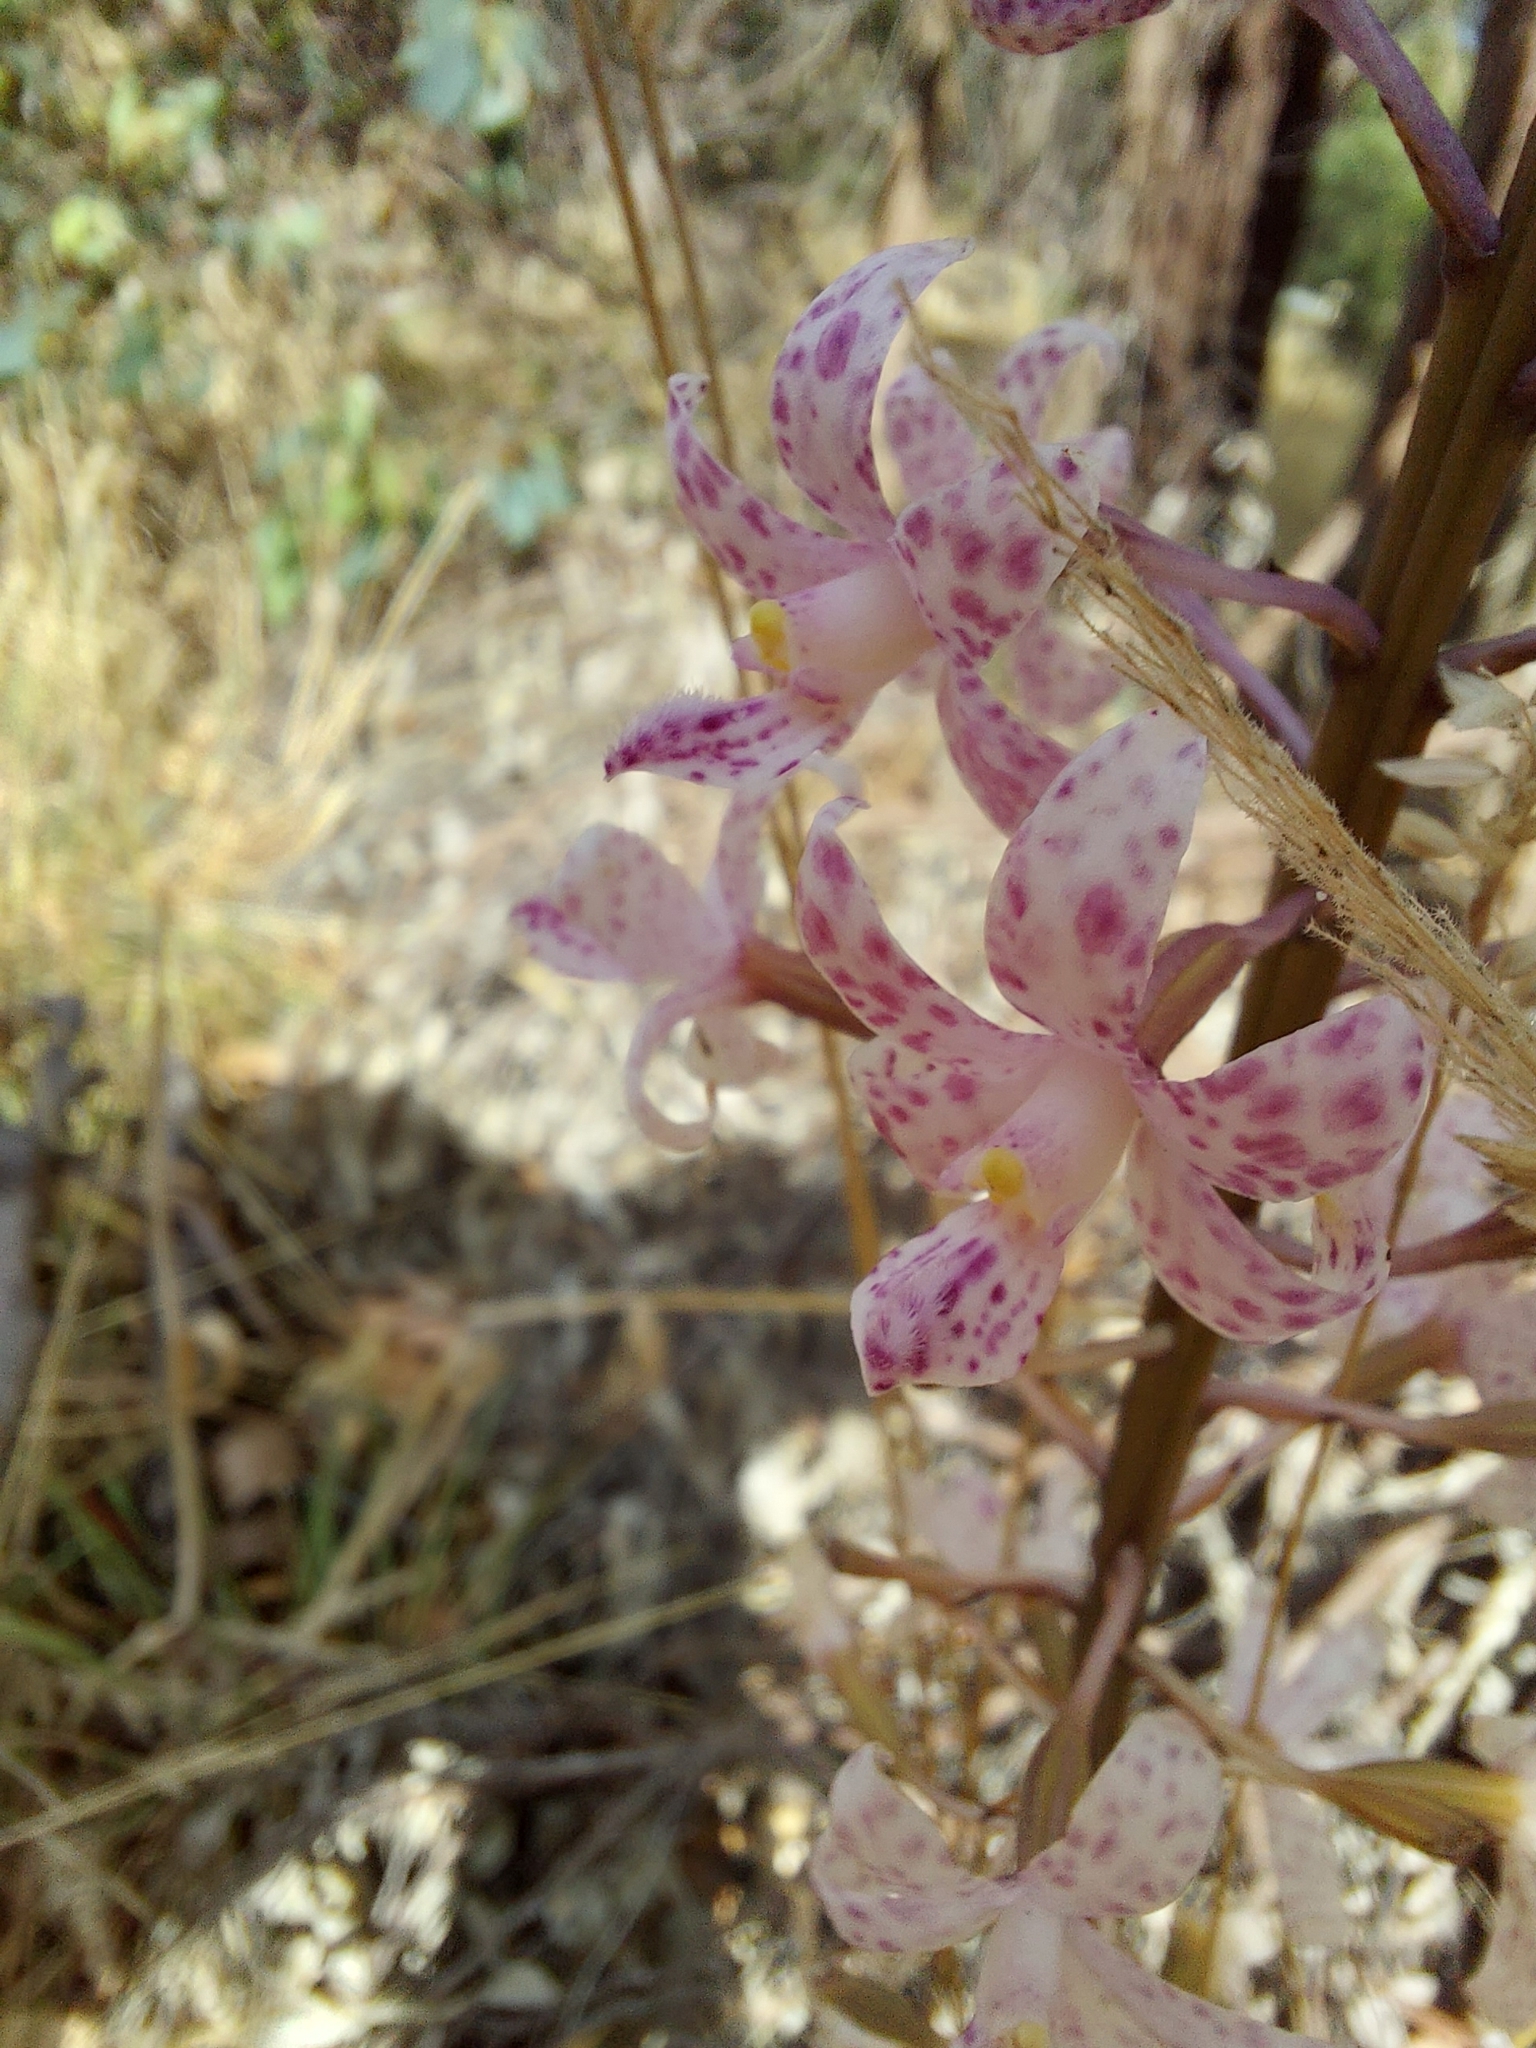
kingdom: Plantae
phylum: Tracheophyta
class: Liliopsida
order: Asparagales
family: Orchidaceae
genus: Dipodium
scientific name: Dipodium pardalinum
